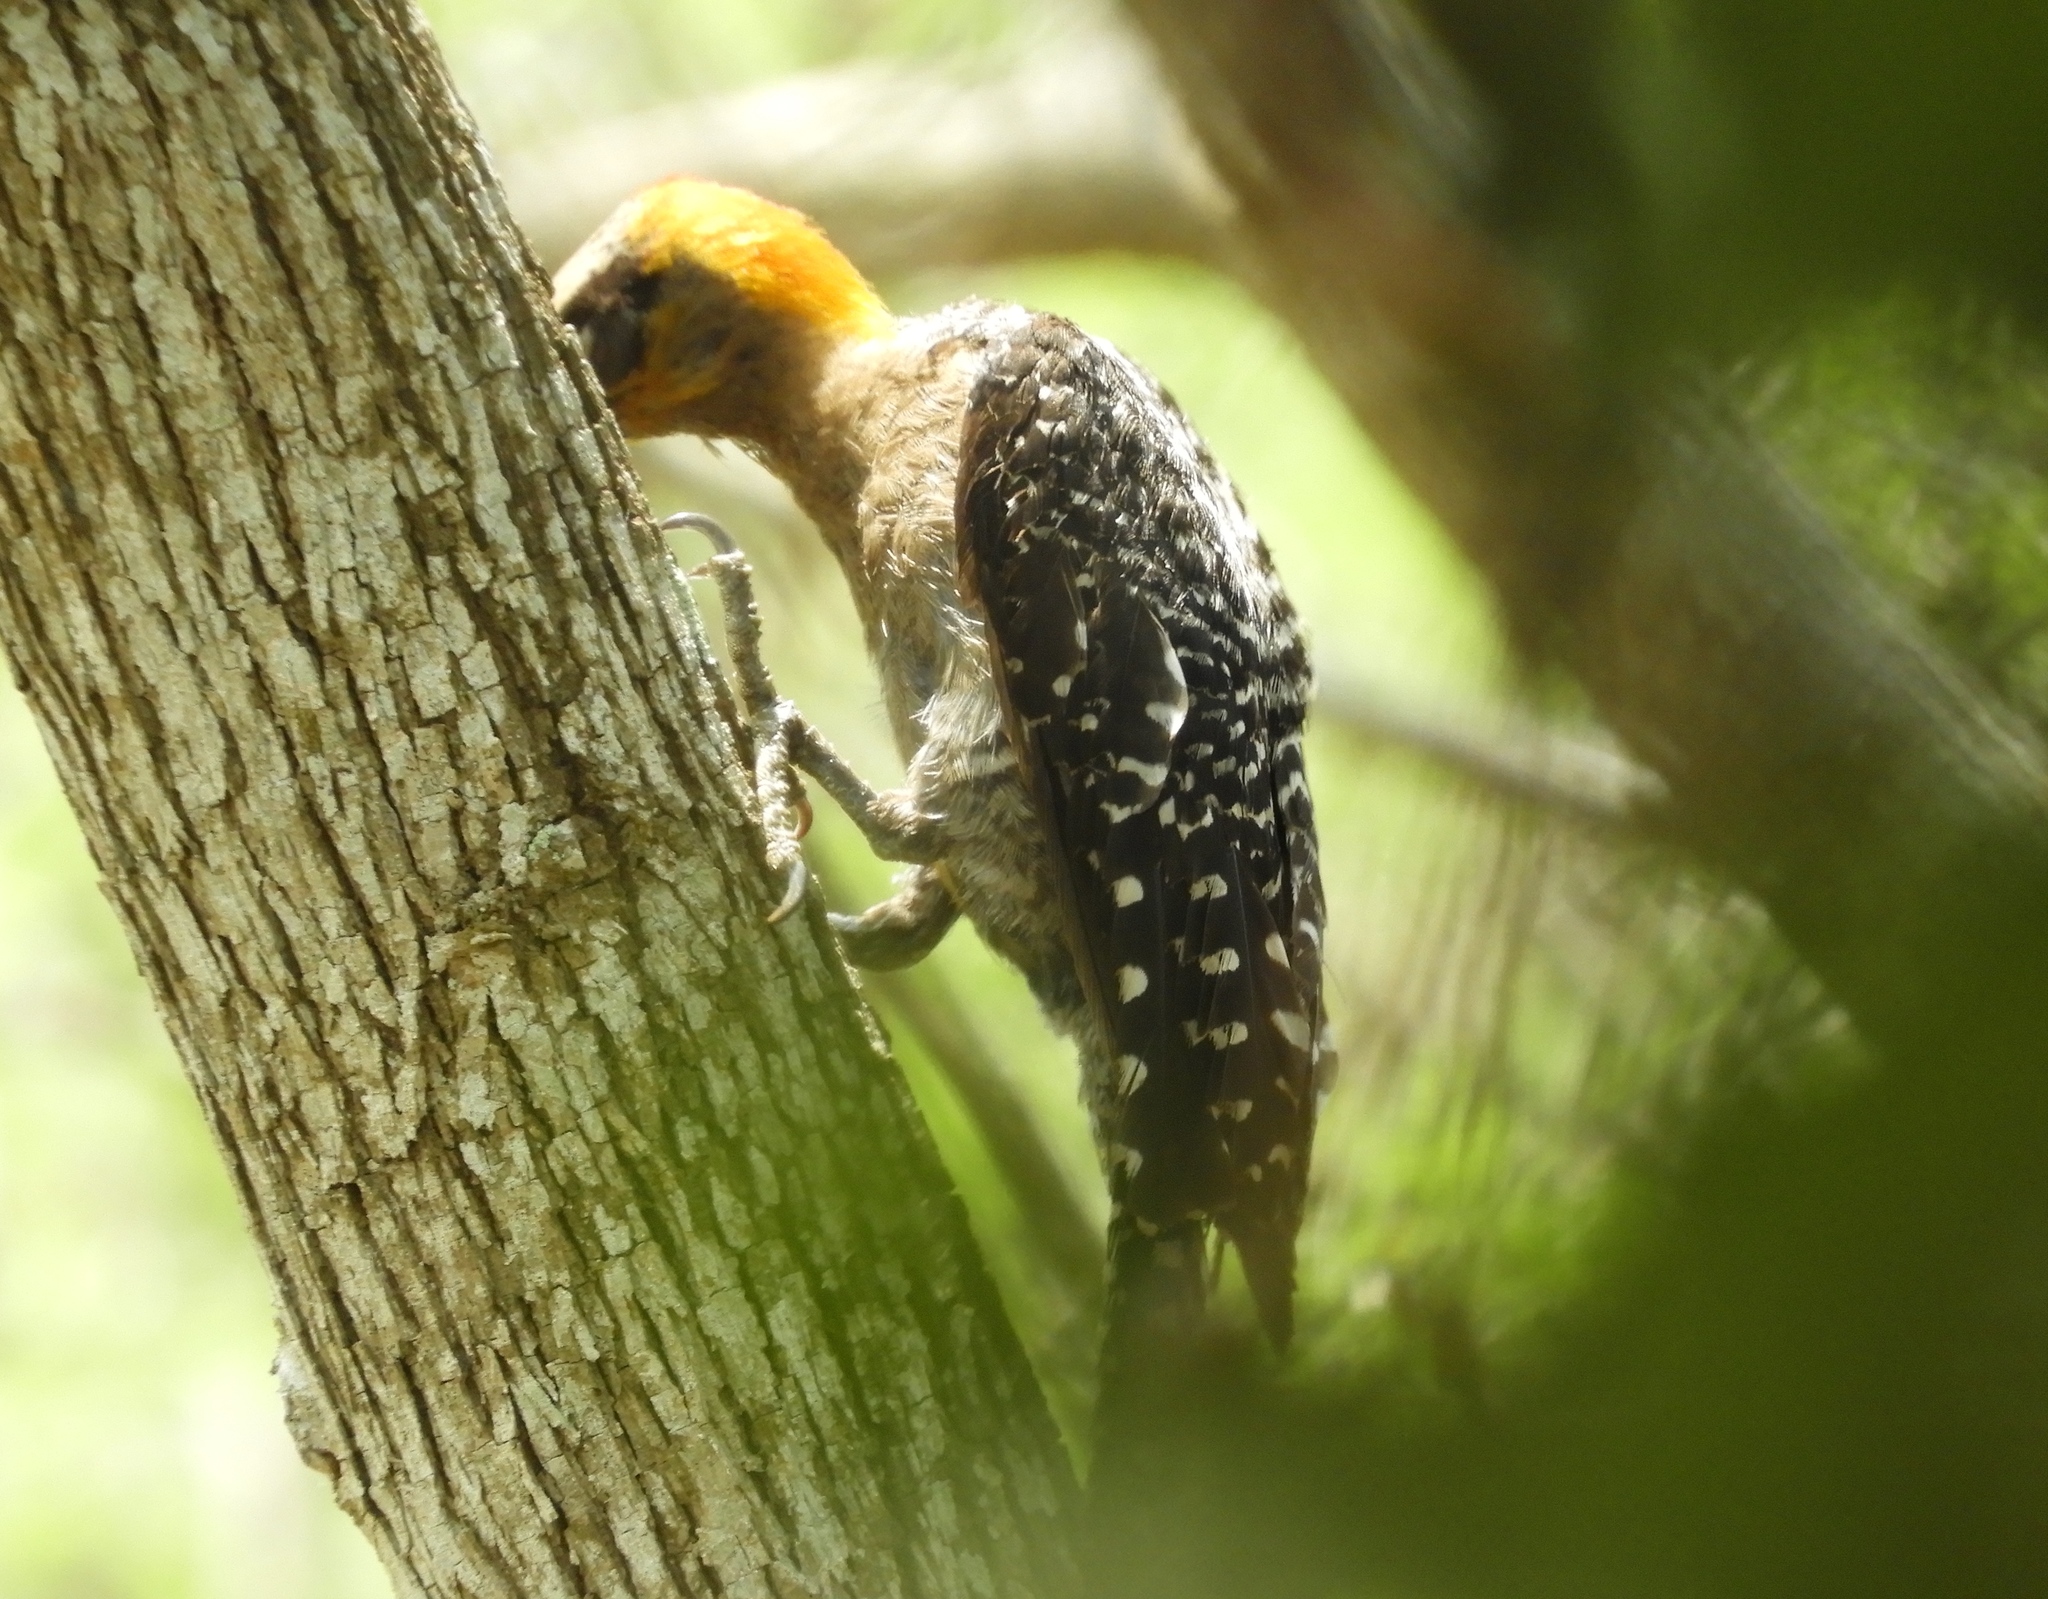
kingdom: Animalia
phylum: Chordata
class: Aves
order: Piciformes
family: Picidae
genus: Melanerpes
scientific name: Melanerpes chrysogenys
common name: Golden-cheeked woodpecker
